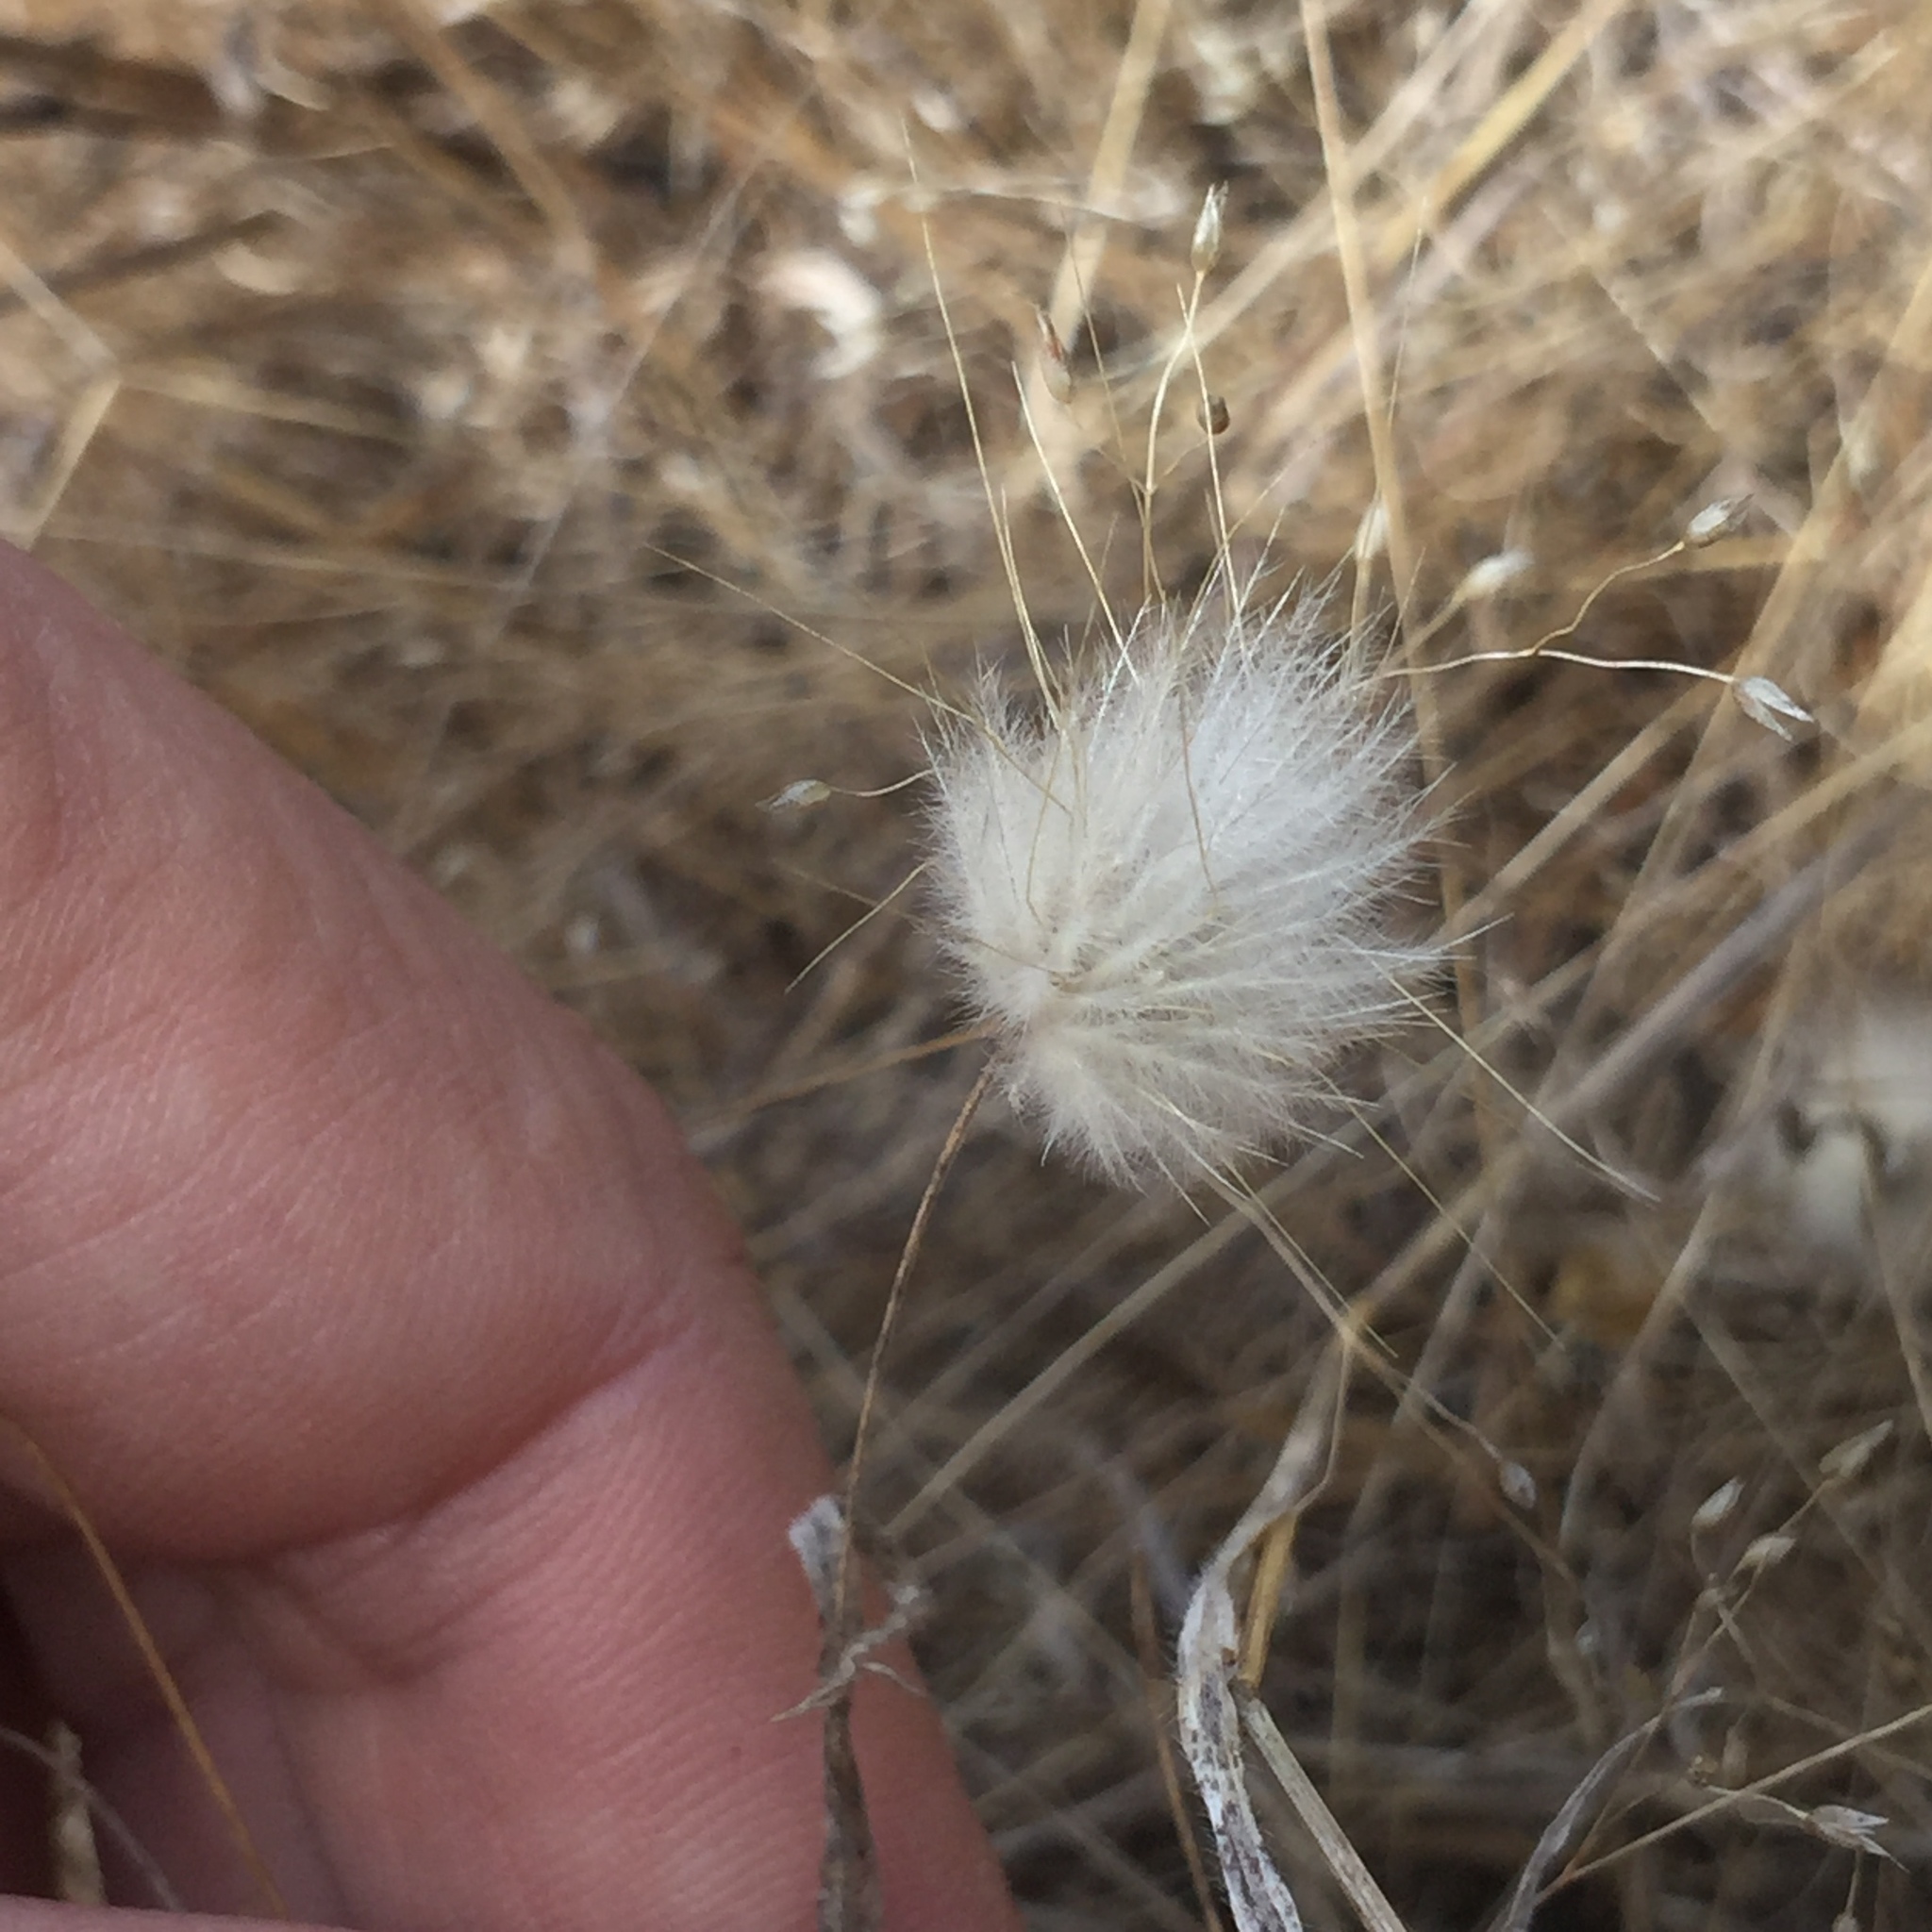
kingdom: Plantae
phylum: Tracheophyta
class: Liliopsida
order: Poales
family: Poaceae
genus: Lagurus
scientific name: Lagurus ovatus
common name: Hare's-tail
